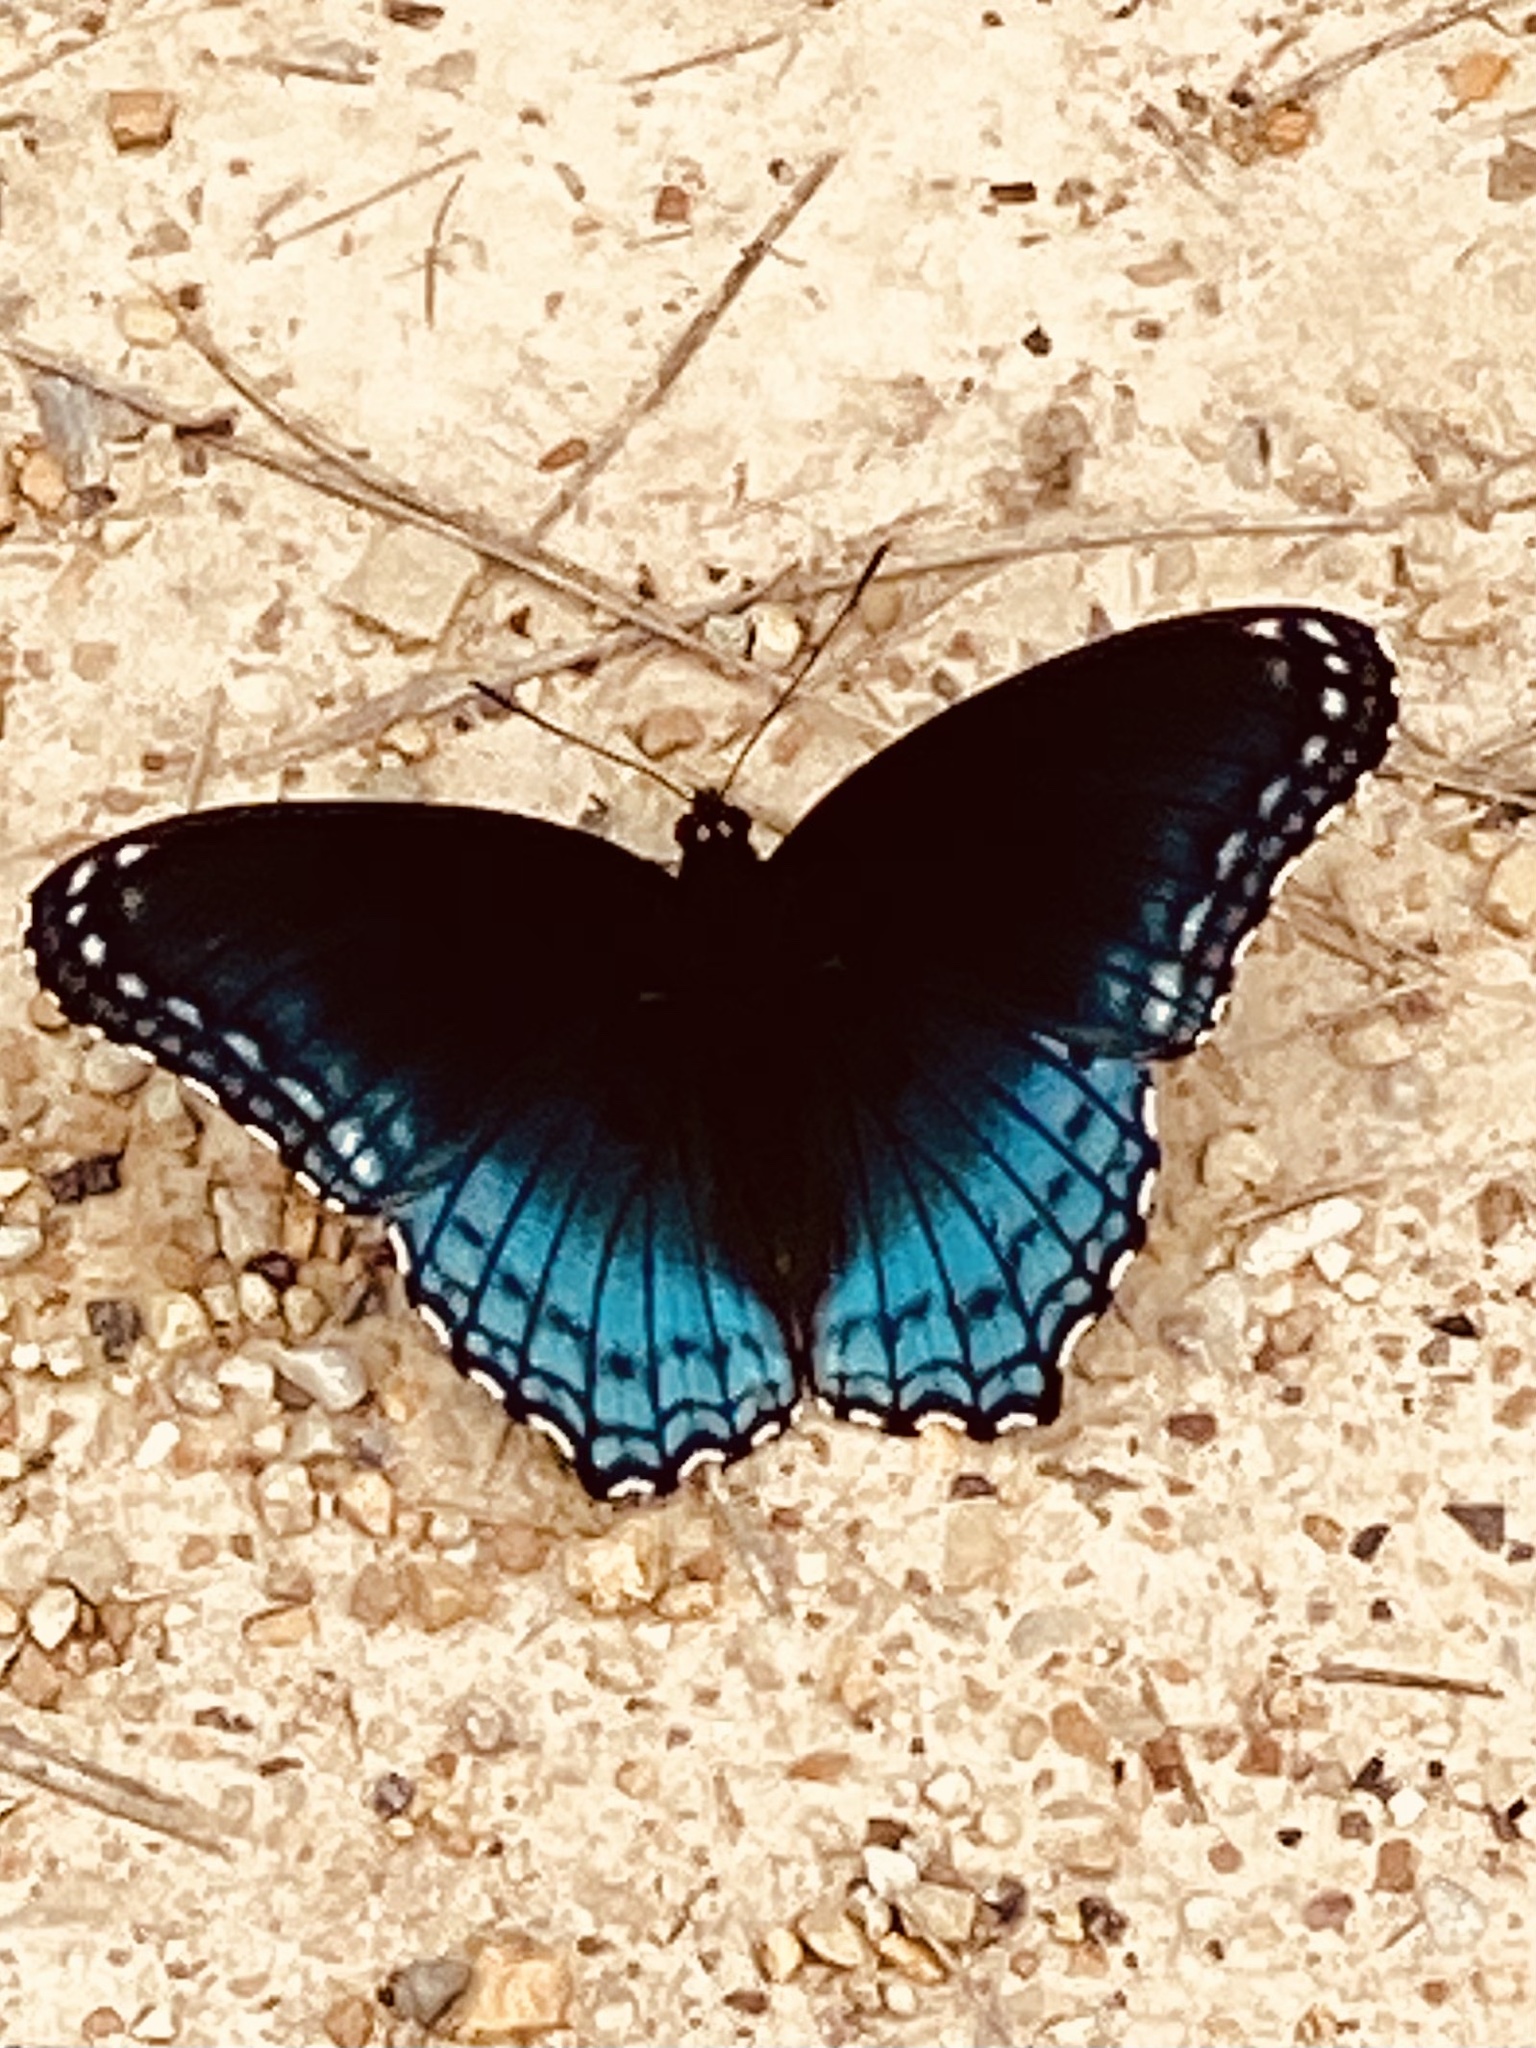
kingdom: Animalia
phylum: Arthropoda
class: Insecta
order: Lepidoptera
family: Nymphalidae
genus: Limenitis
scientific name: Limenitis astyanax
